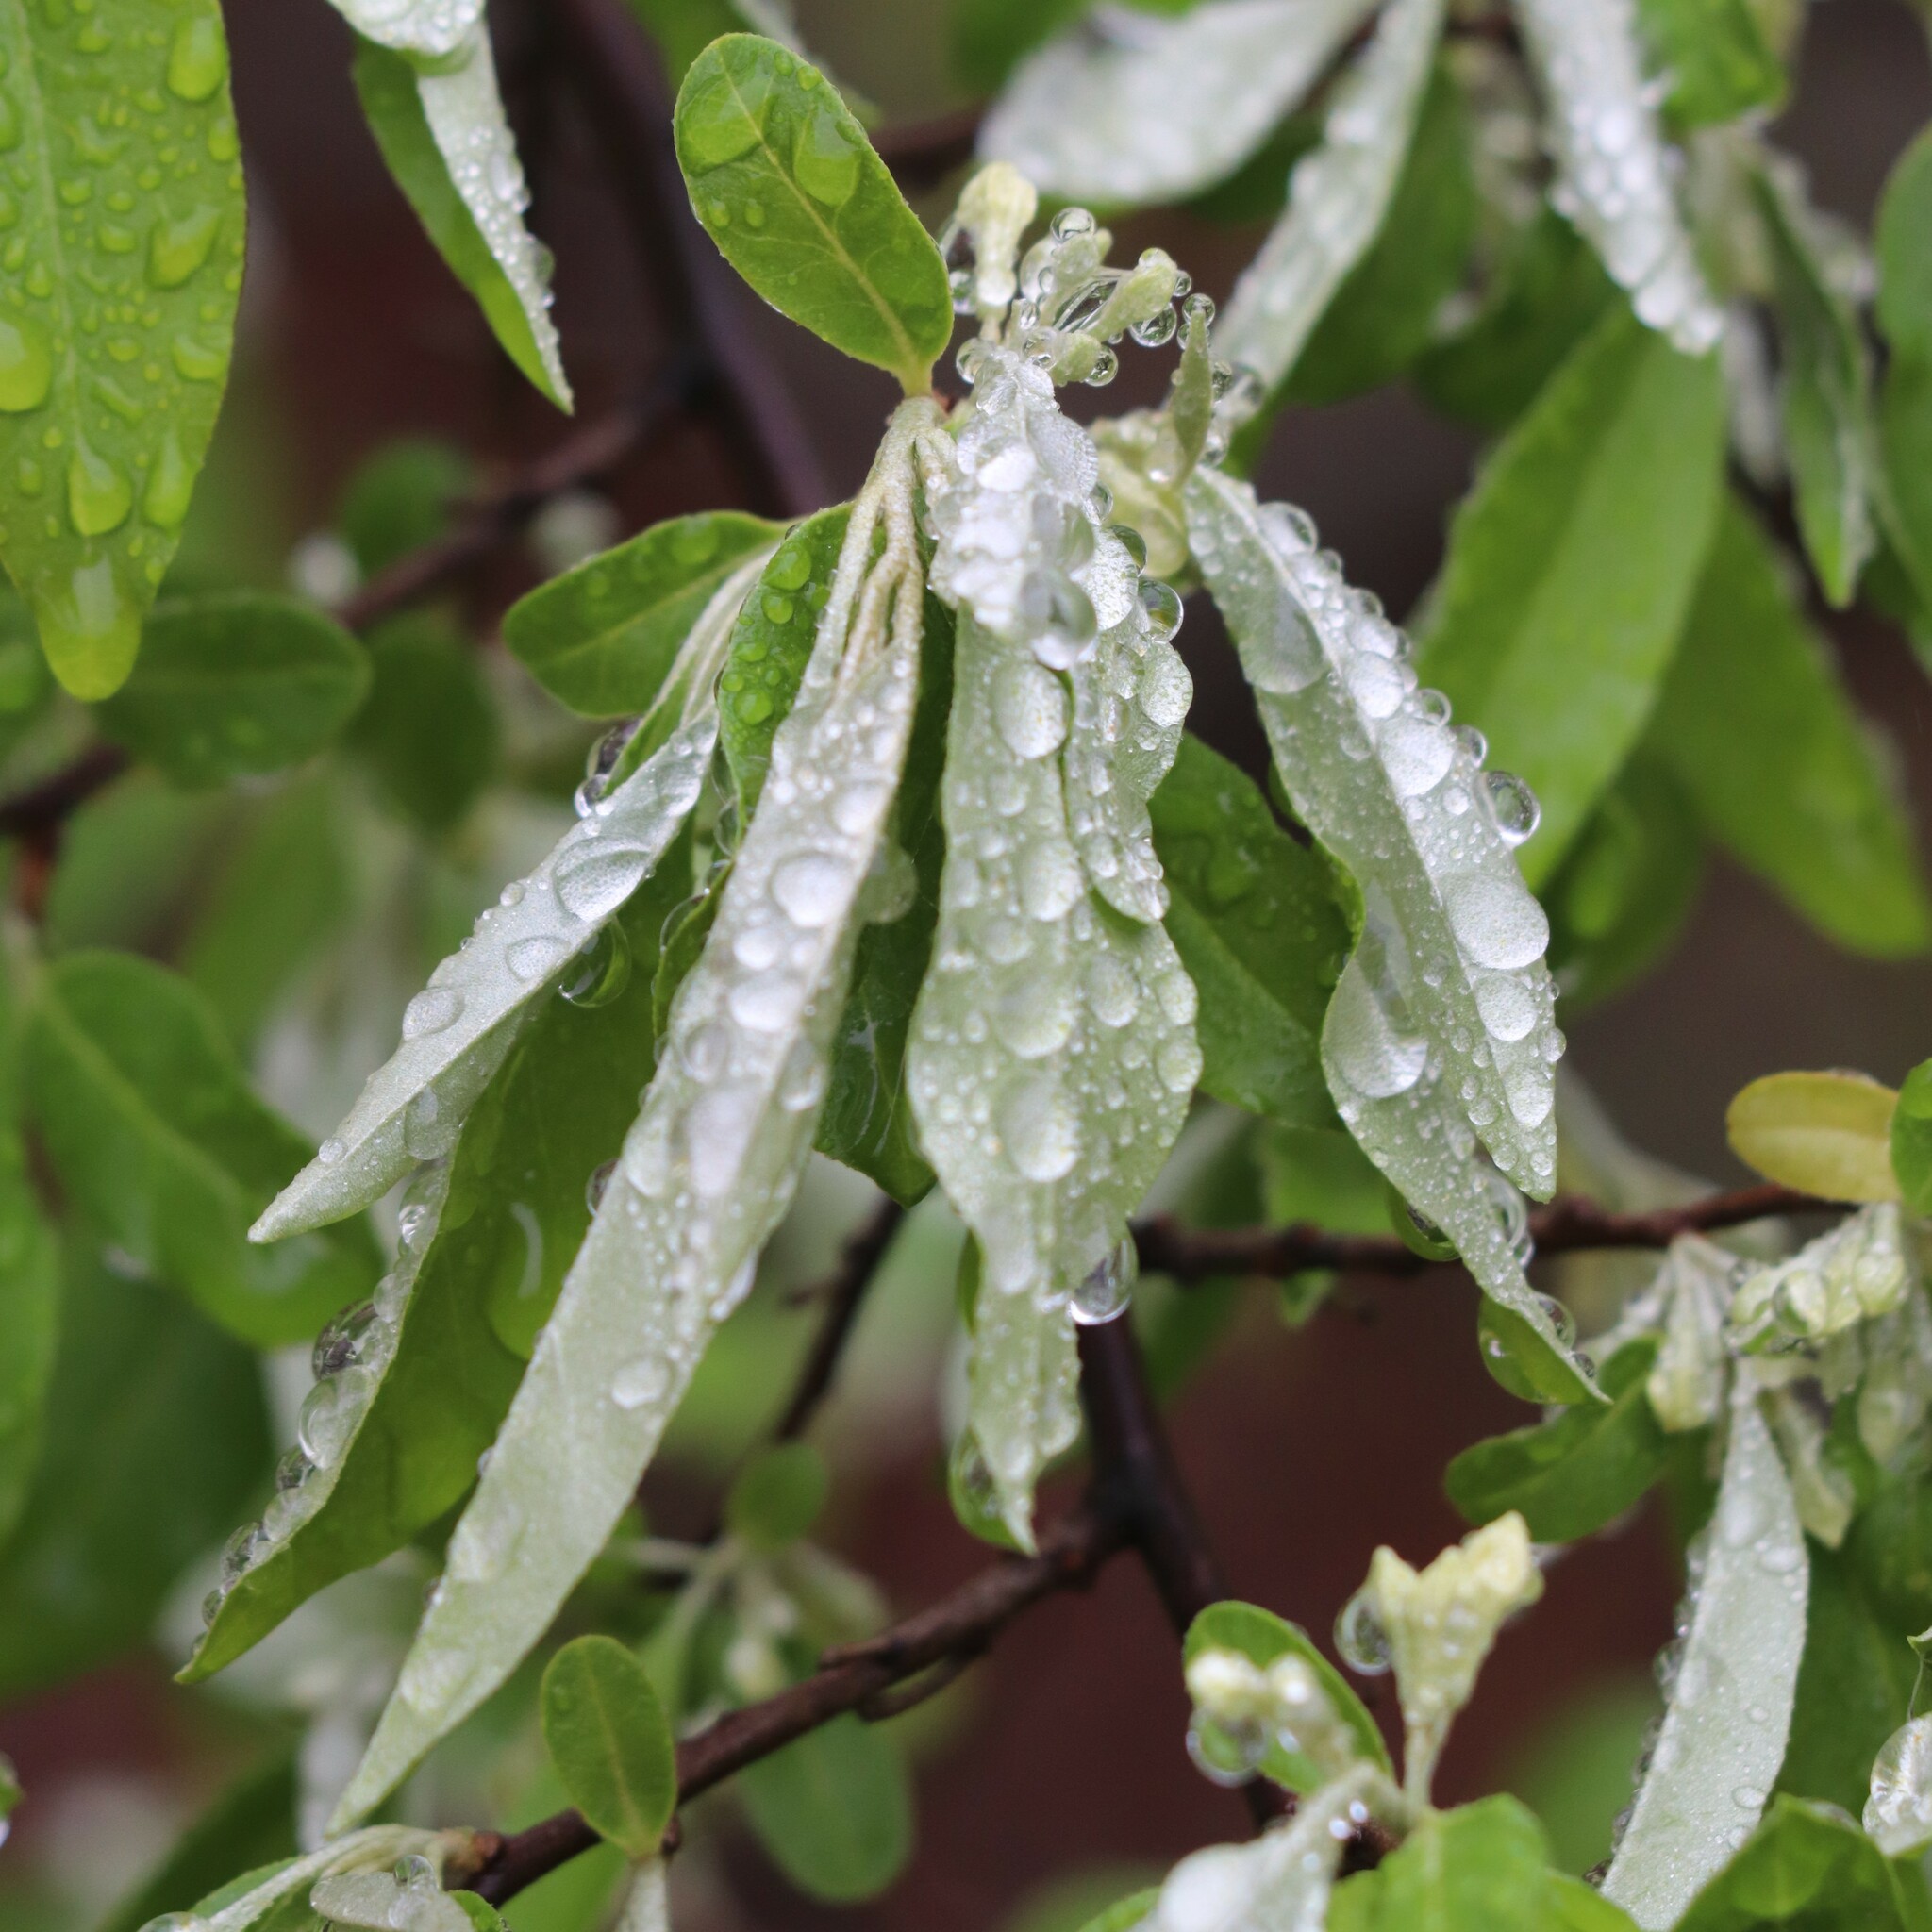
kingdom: Plantae
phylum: Tracheophyta
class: Magnoliopsida
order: Rosales
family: Elaeagnaceae
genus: Elaeagnus
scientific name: Elaeagnus umbellata
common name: Autumn olive
